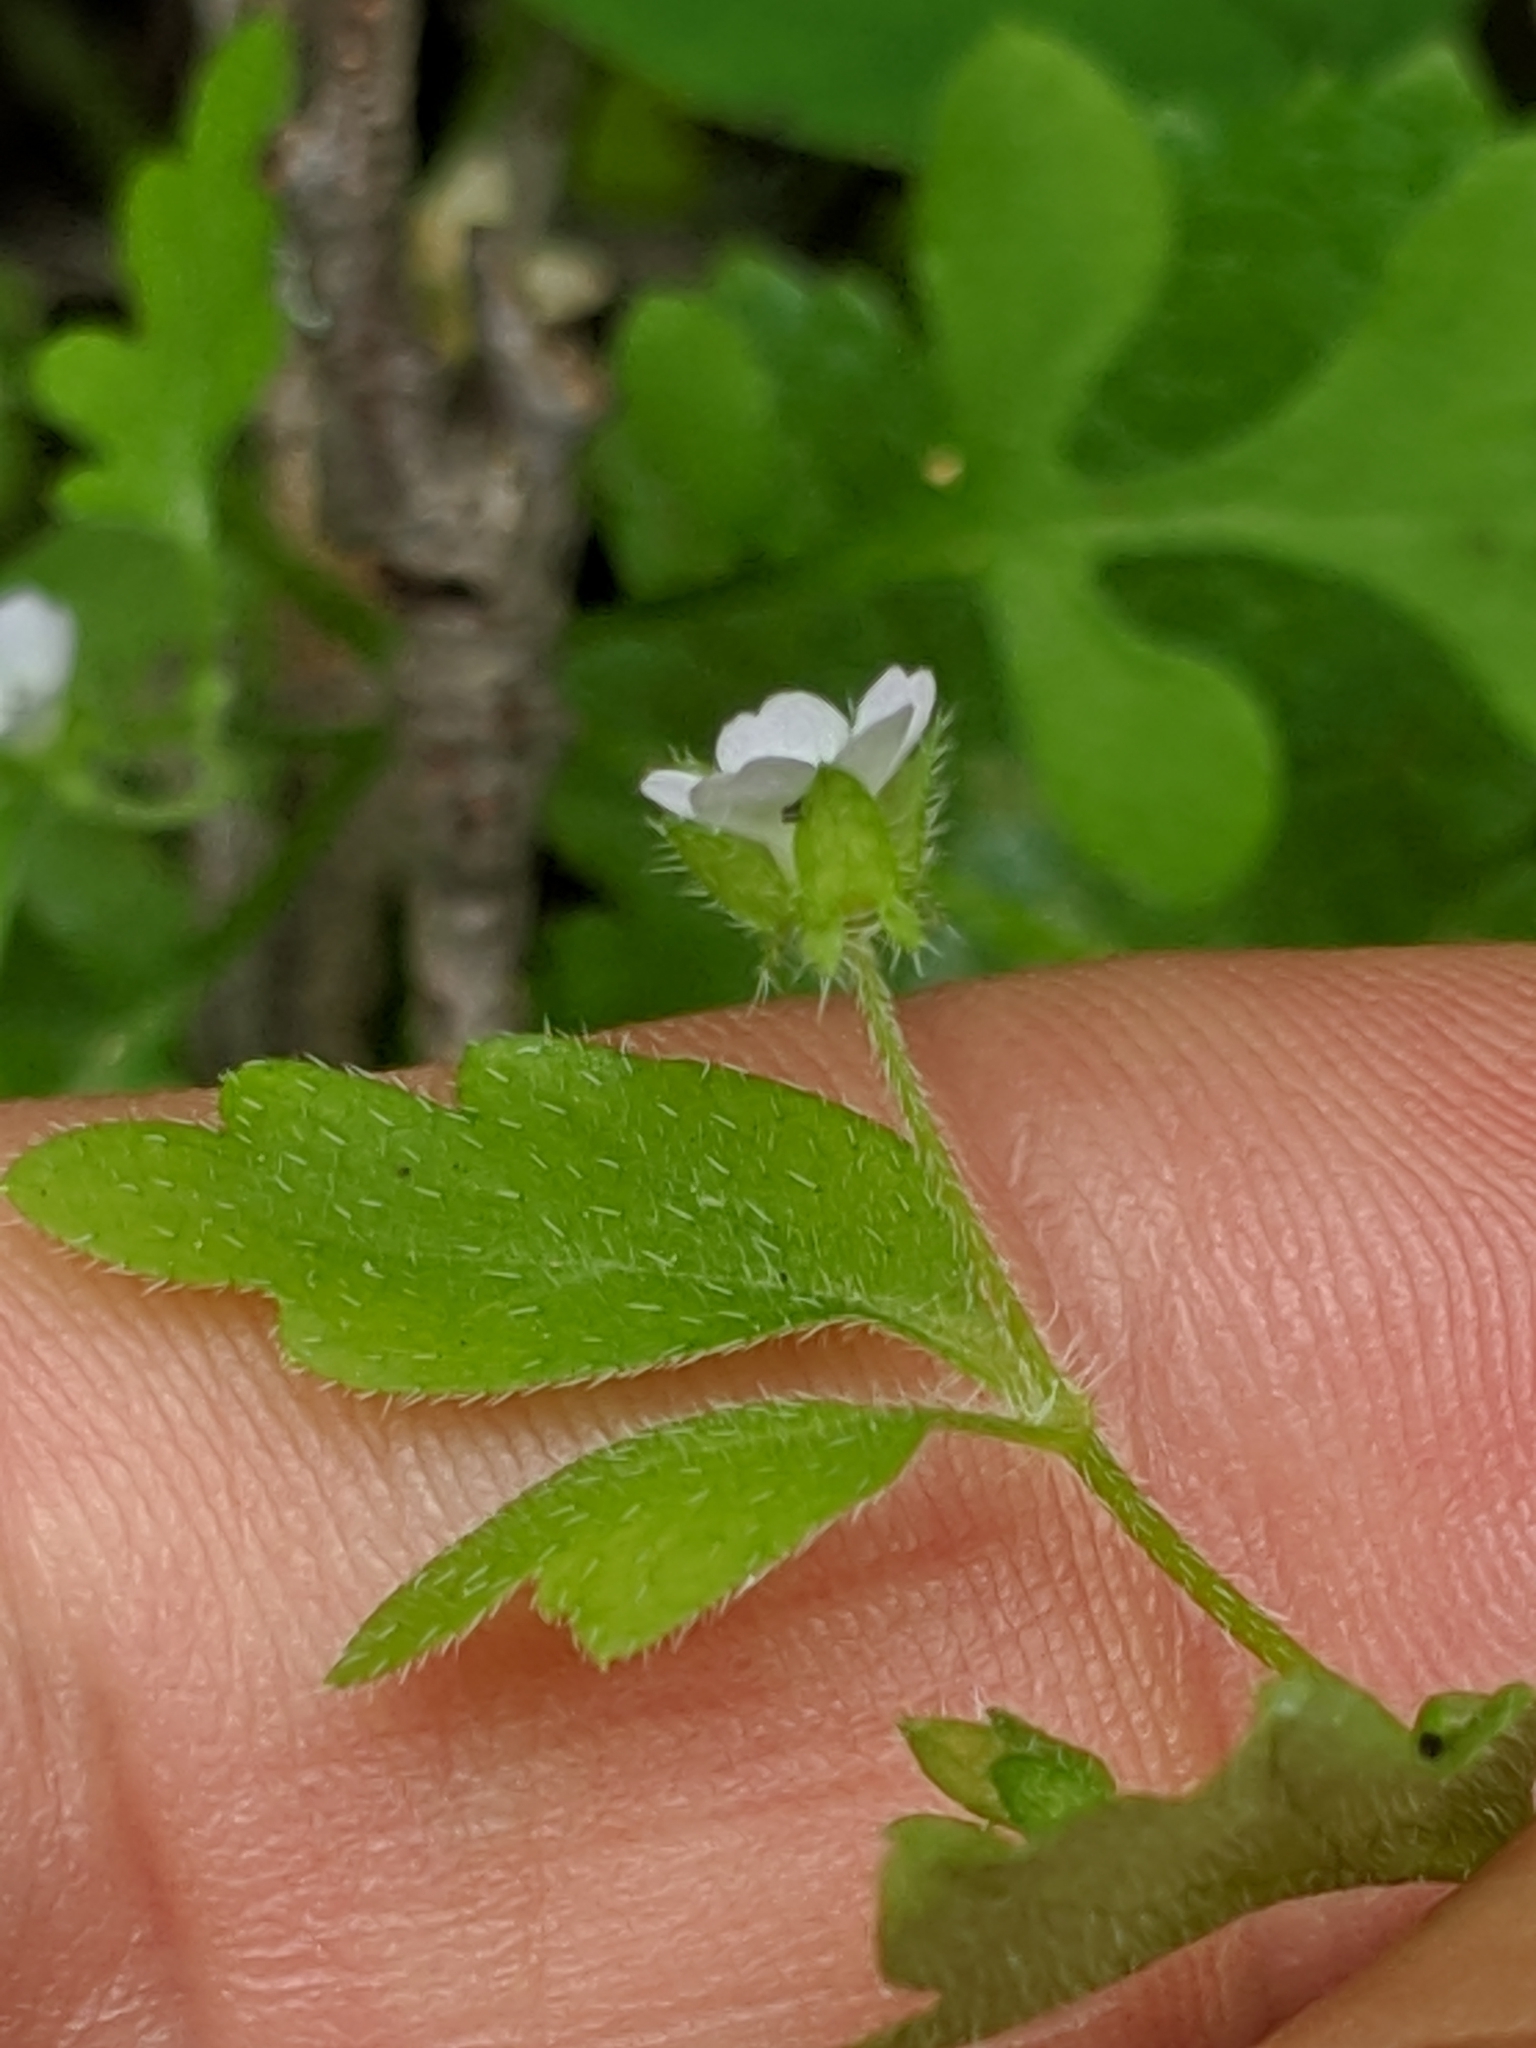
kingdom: Plantae
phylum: Tracheophyta
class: Magnoliopsida
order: Boraginales
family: Hydrophyllaceae
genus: Nemophila
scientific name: Nemophila parviflora
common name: Small-flowered baby-blue-eyes
